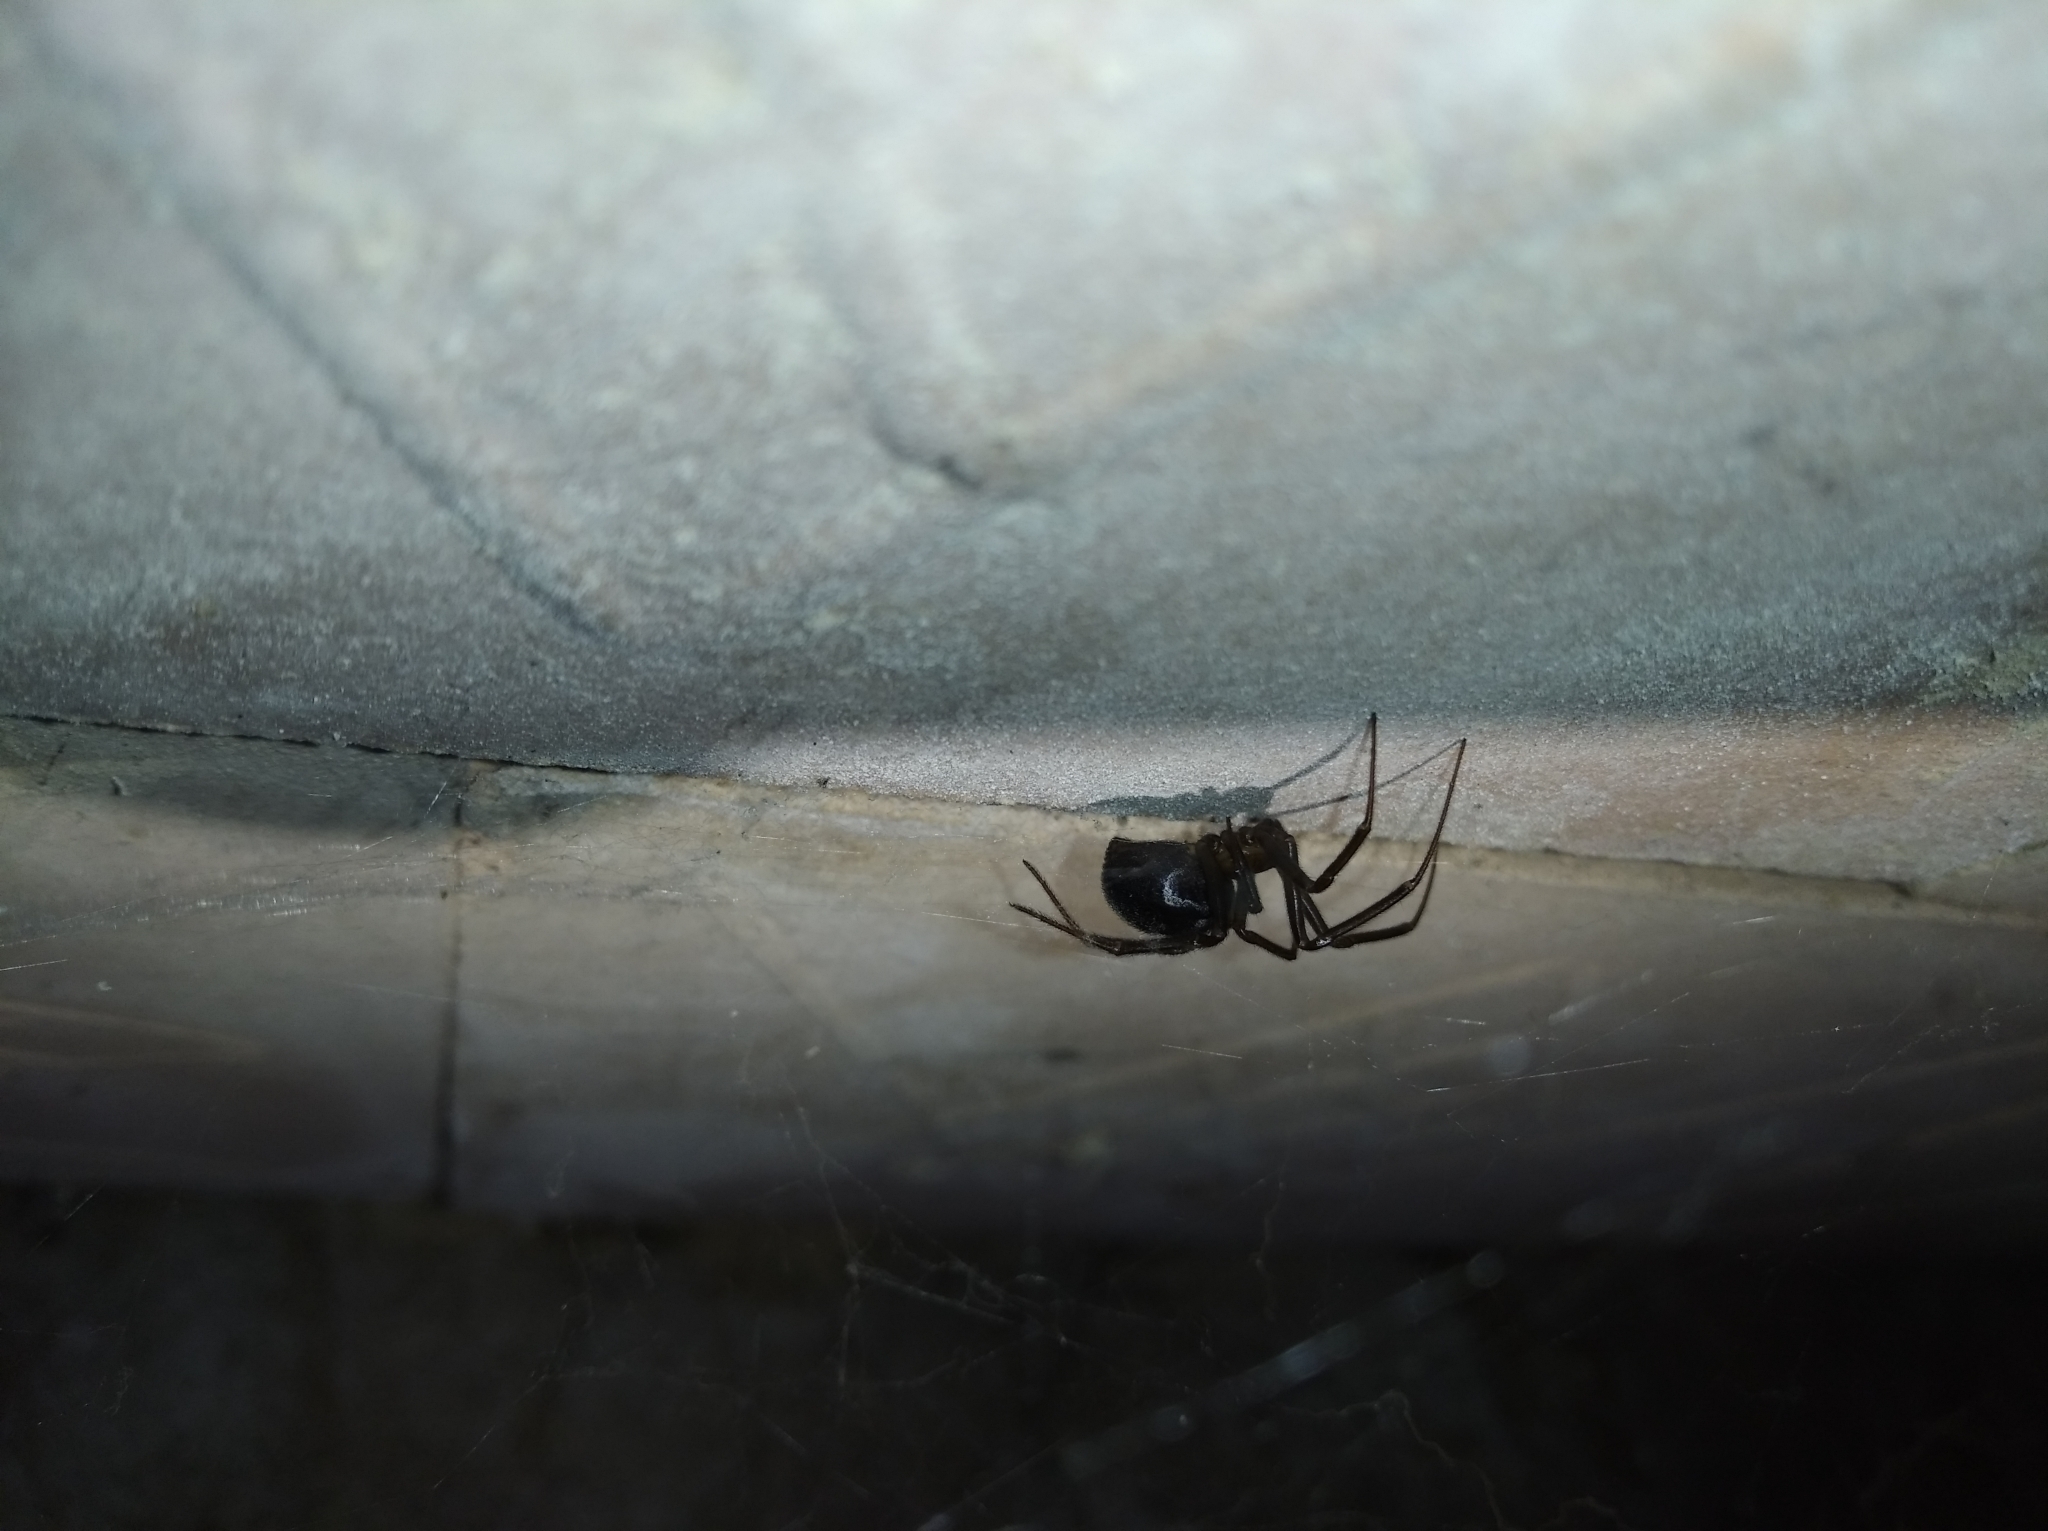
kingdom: Animalia
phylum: Arthropoda
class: Arachnida
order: Araneae
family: Theridiidae
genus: Steatoda
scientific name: Steatoda grossa
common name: False black widow
